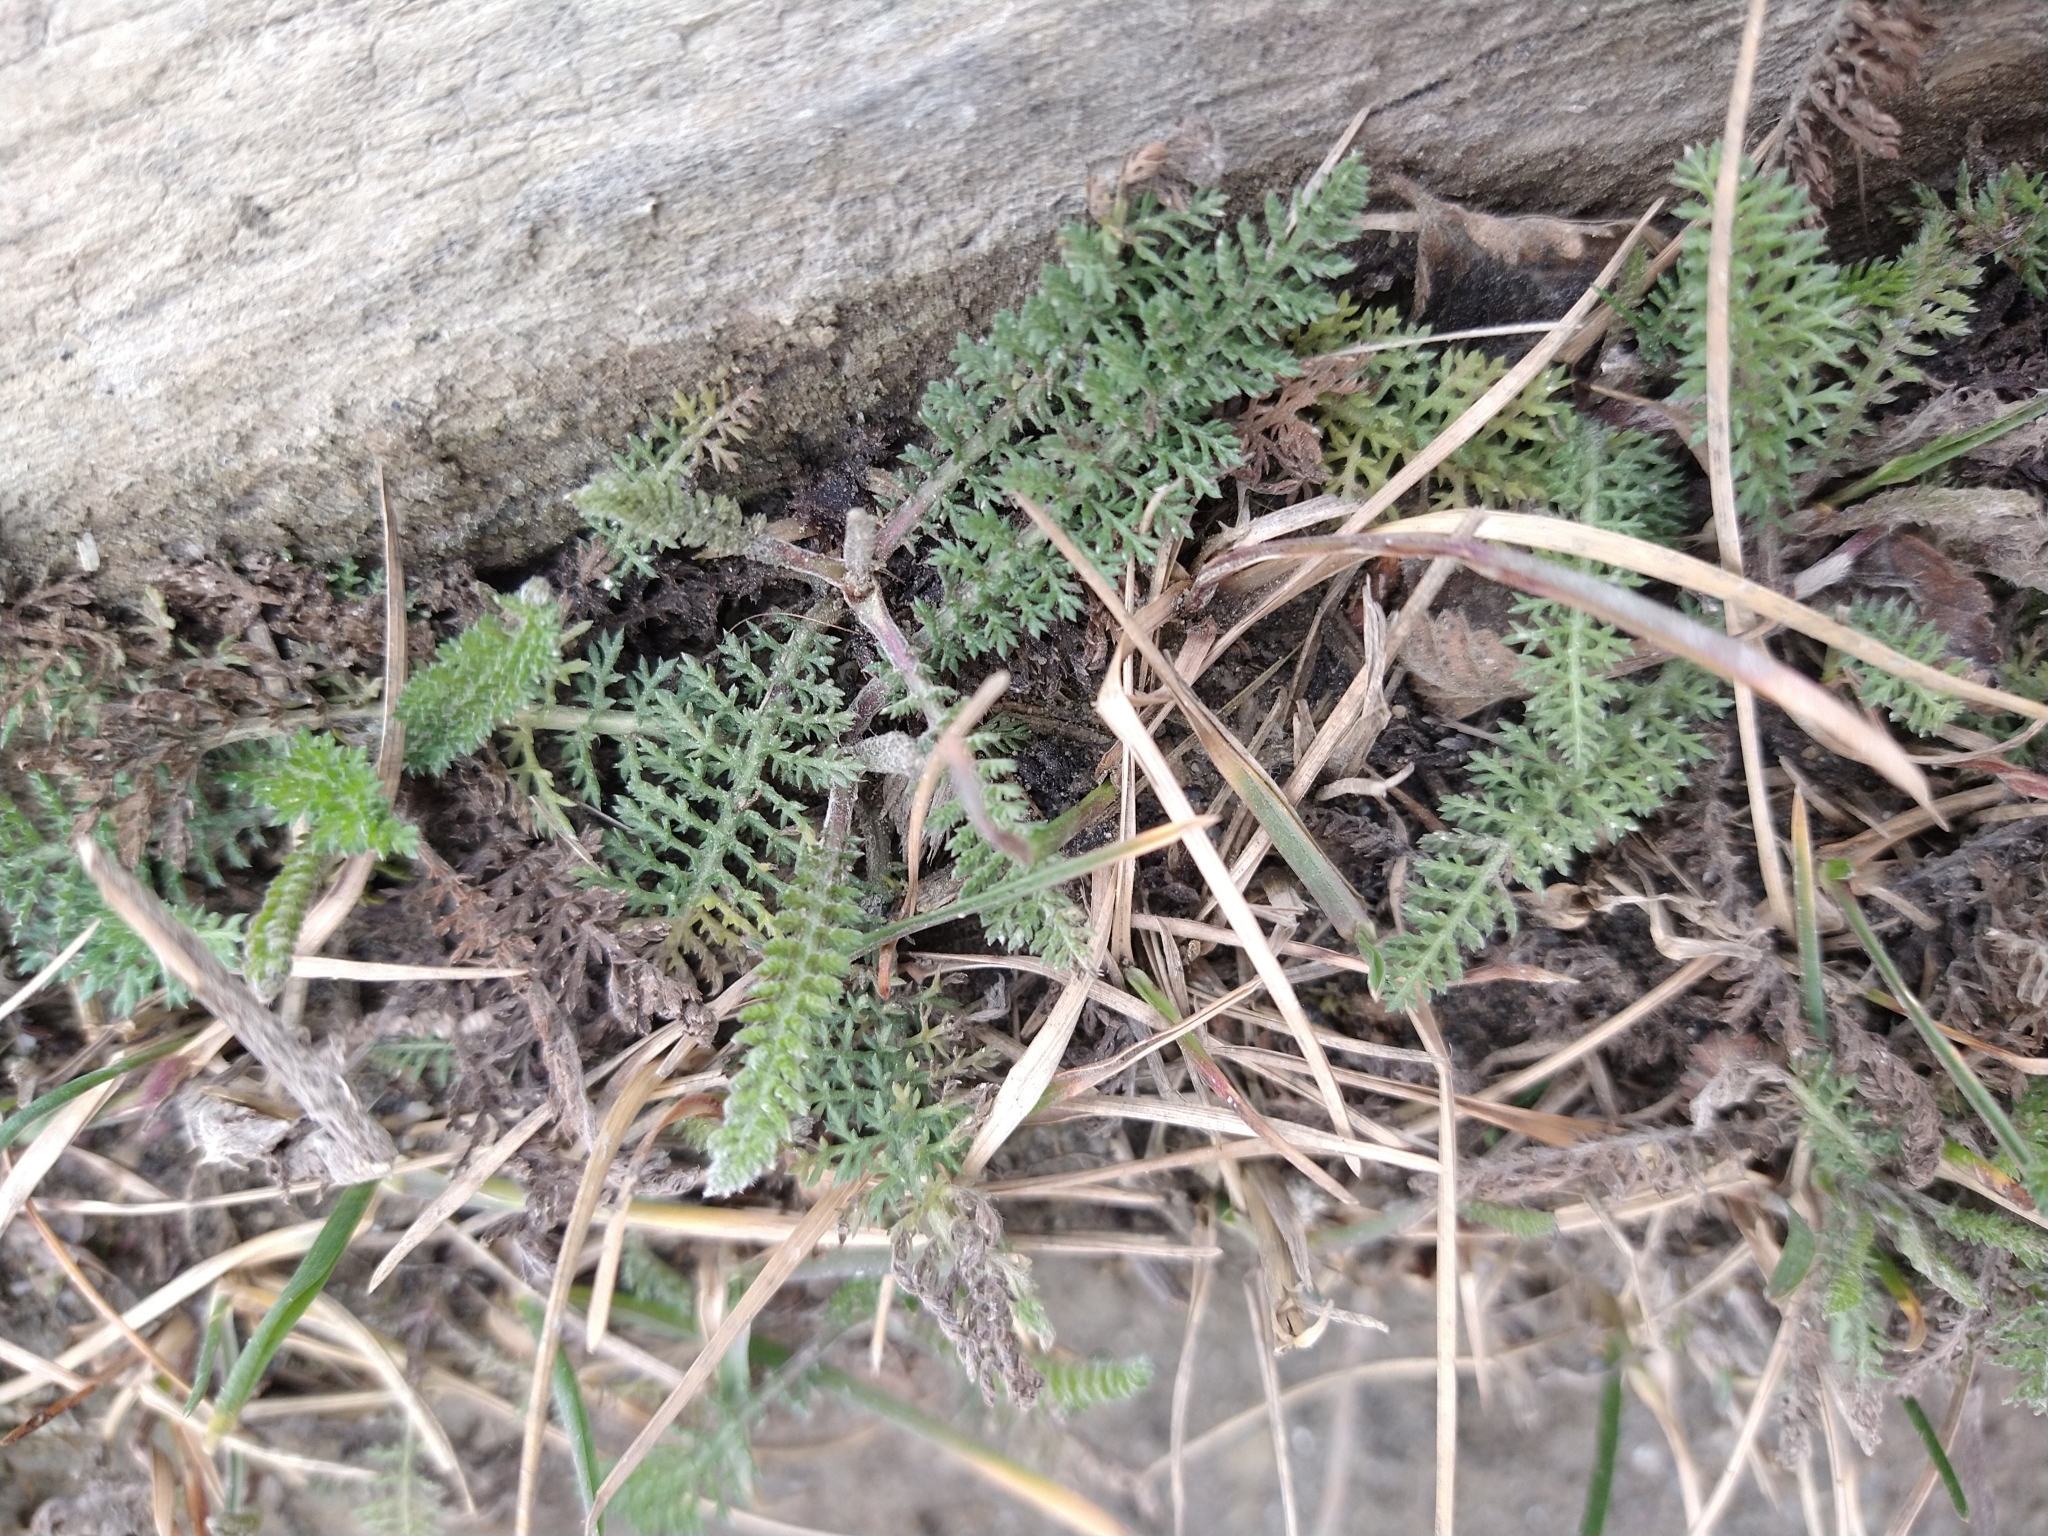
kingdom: Plantae
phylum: Tracheophyta
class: Magnoliopsida
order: Asterales
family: Asteraceae
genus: Achillea
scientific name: Achillea millefolium
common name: Yarrow
